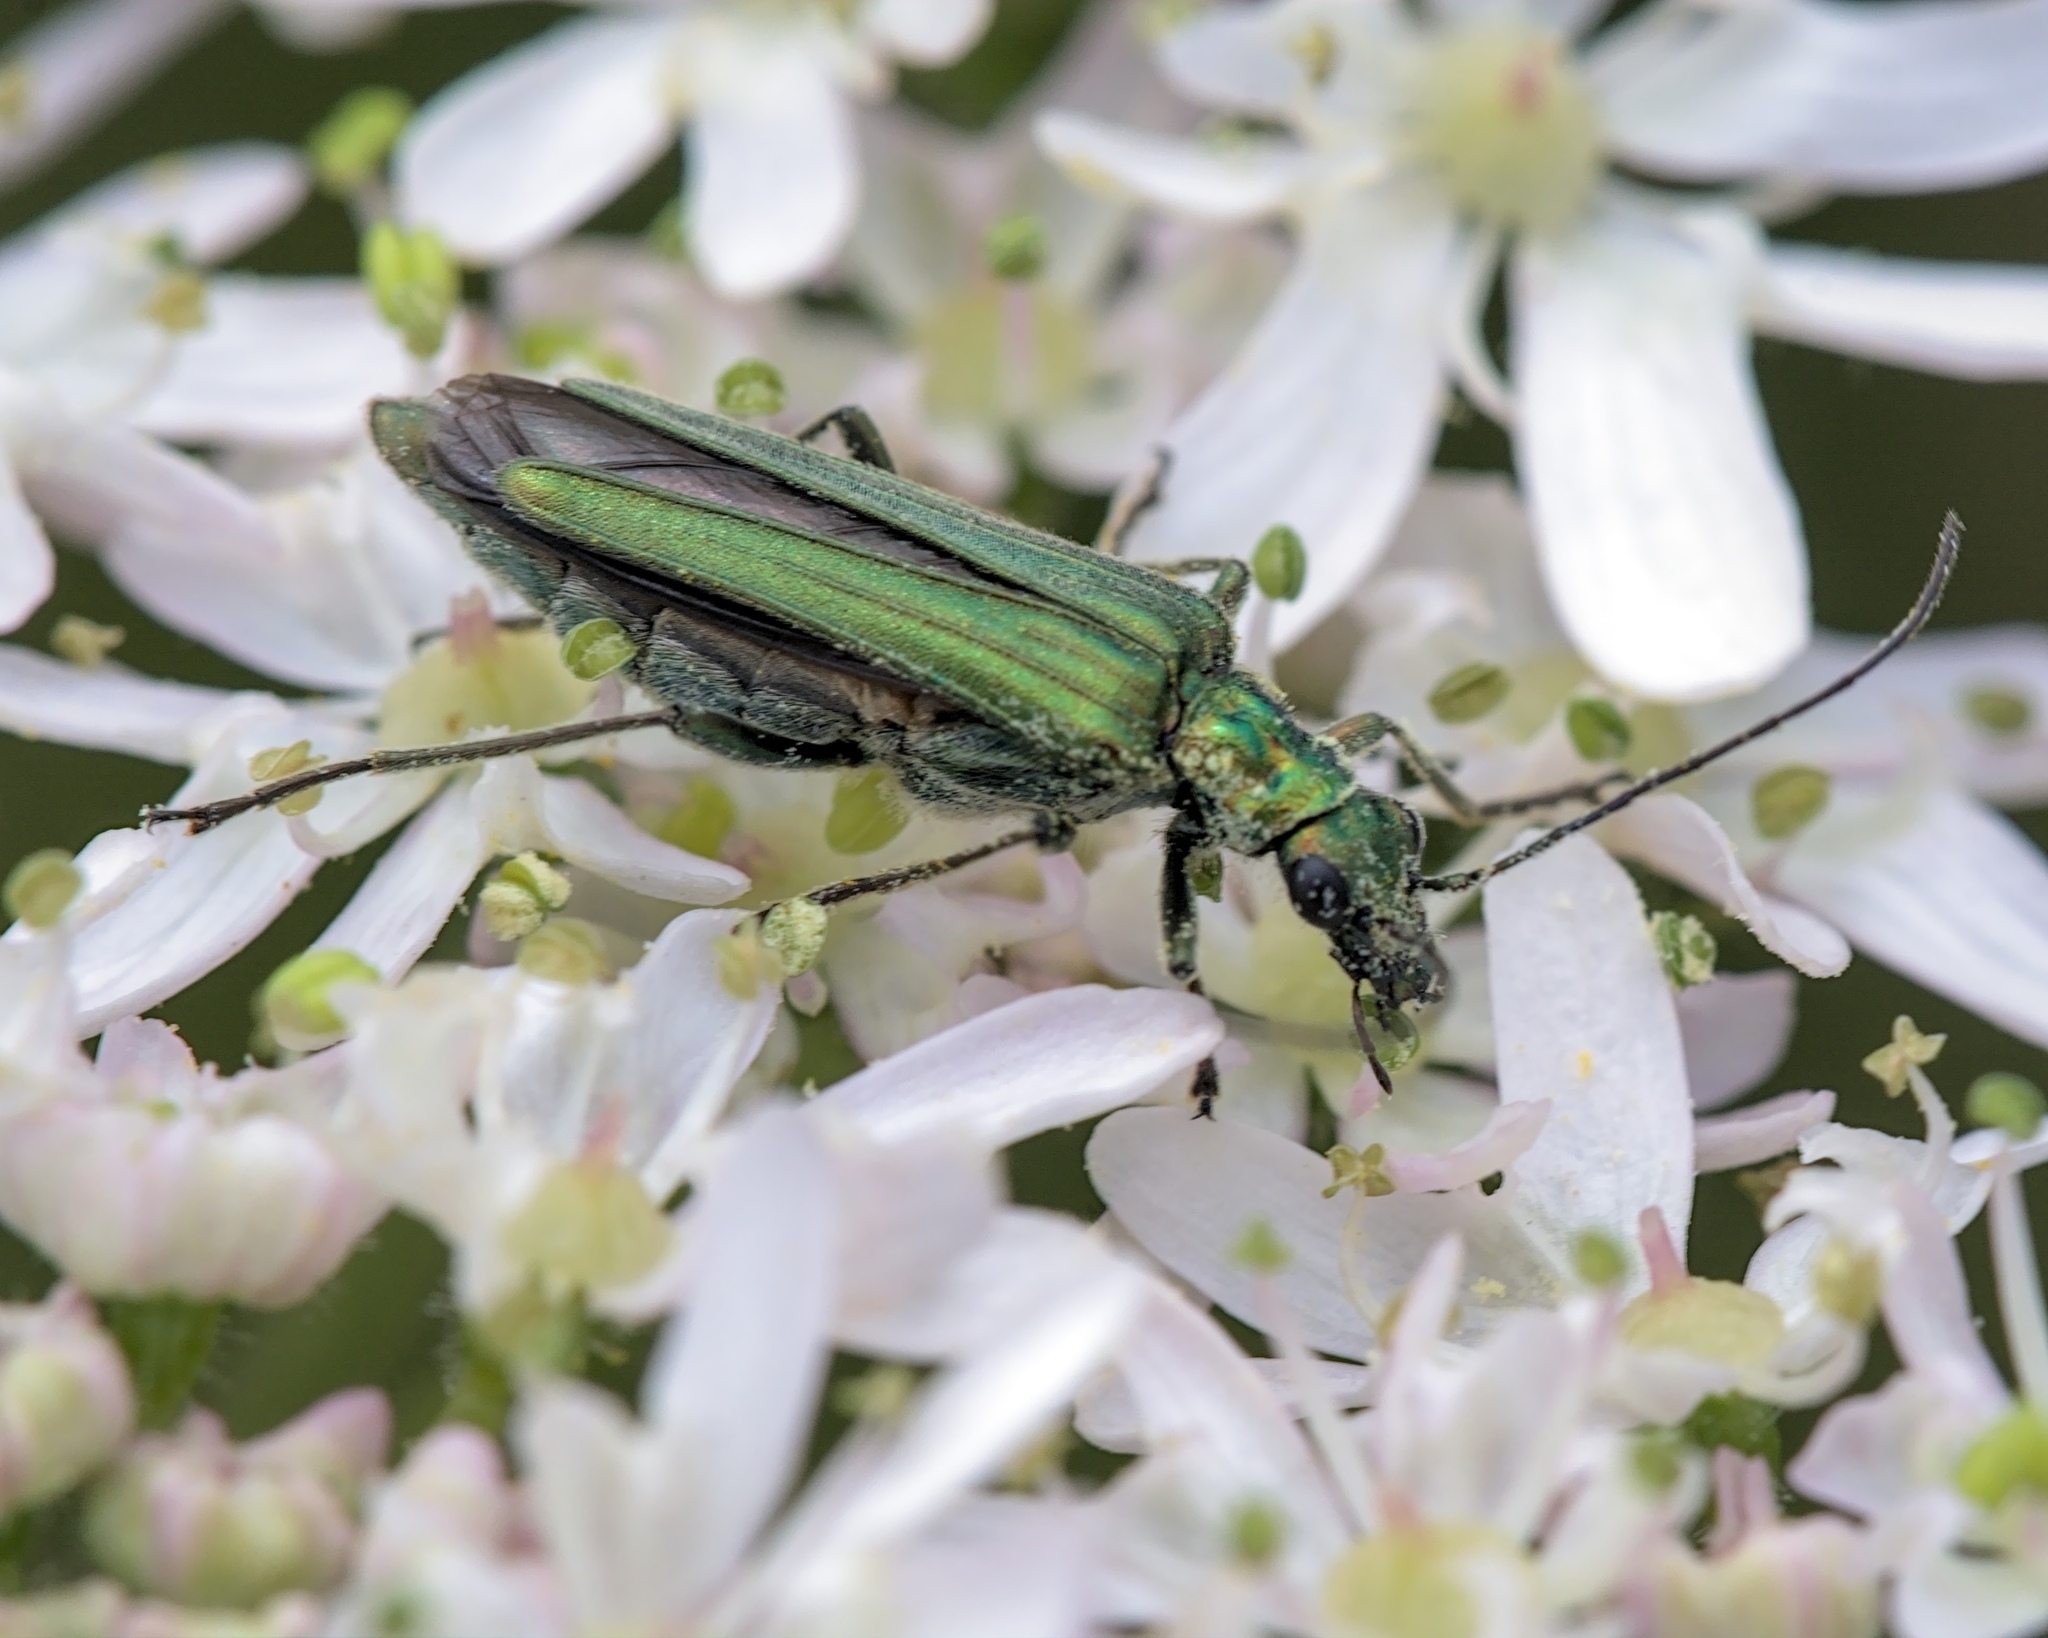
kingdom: Animalia
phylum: Arthropoda
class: Insecta
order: Coleoptera
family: Oedemeridae
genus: Oedemera
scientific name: Oedemera nobilis
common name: Swollen-thighed beetle
